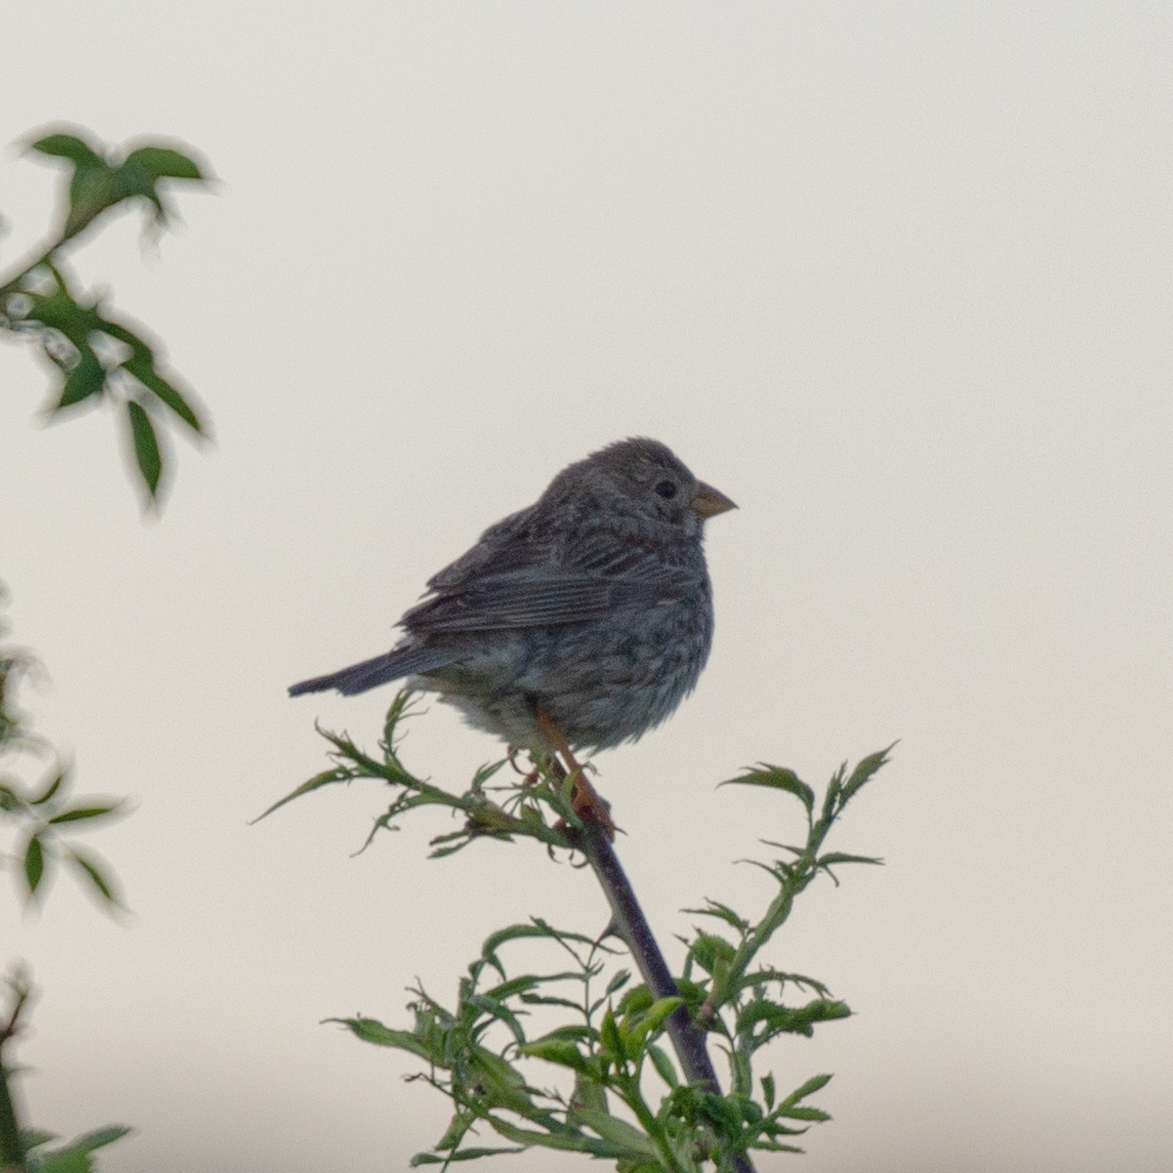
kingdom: Animalia
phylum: Chordata
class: Aves
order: Passeriformes
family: Emberizidae
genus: Emberiza
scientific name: Emberiza calandra
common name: Corn bunting
